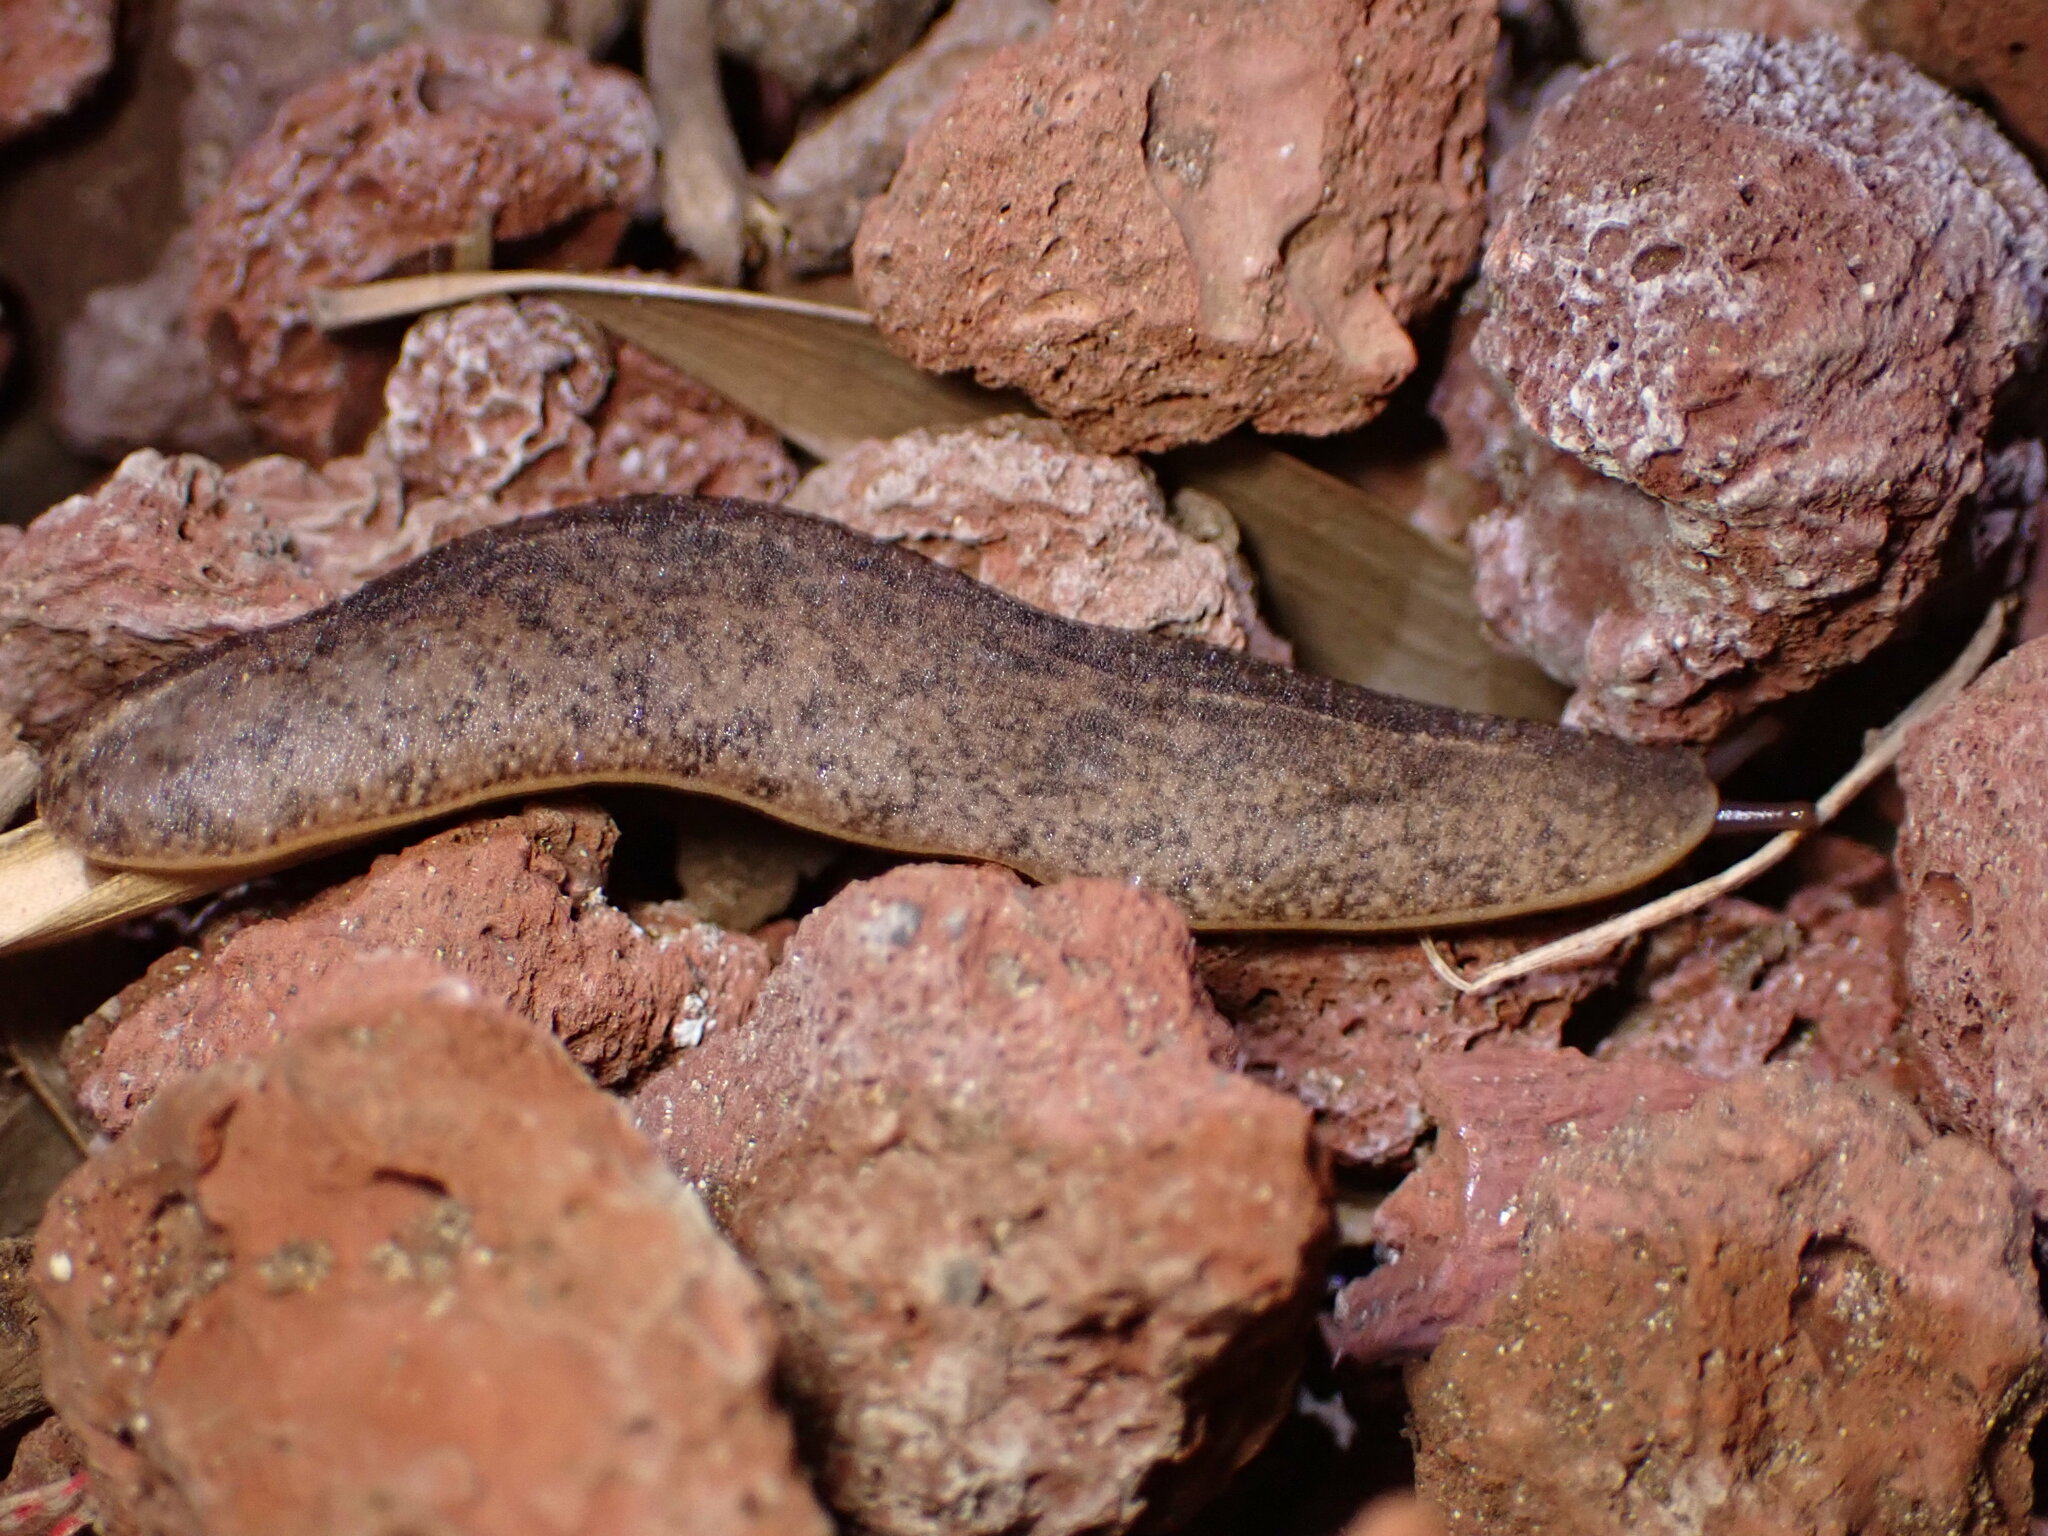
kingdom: Animalia
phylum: Mollusca
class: Gastropoda
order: Systellommatophora
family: Veronicellidae
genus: Veronicella
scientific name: Veronicella cubensis
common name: Two striped slug
